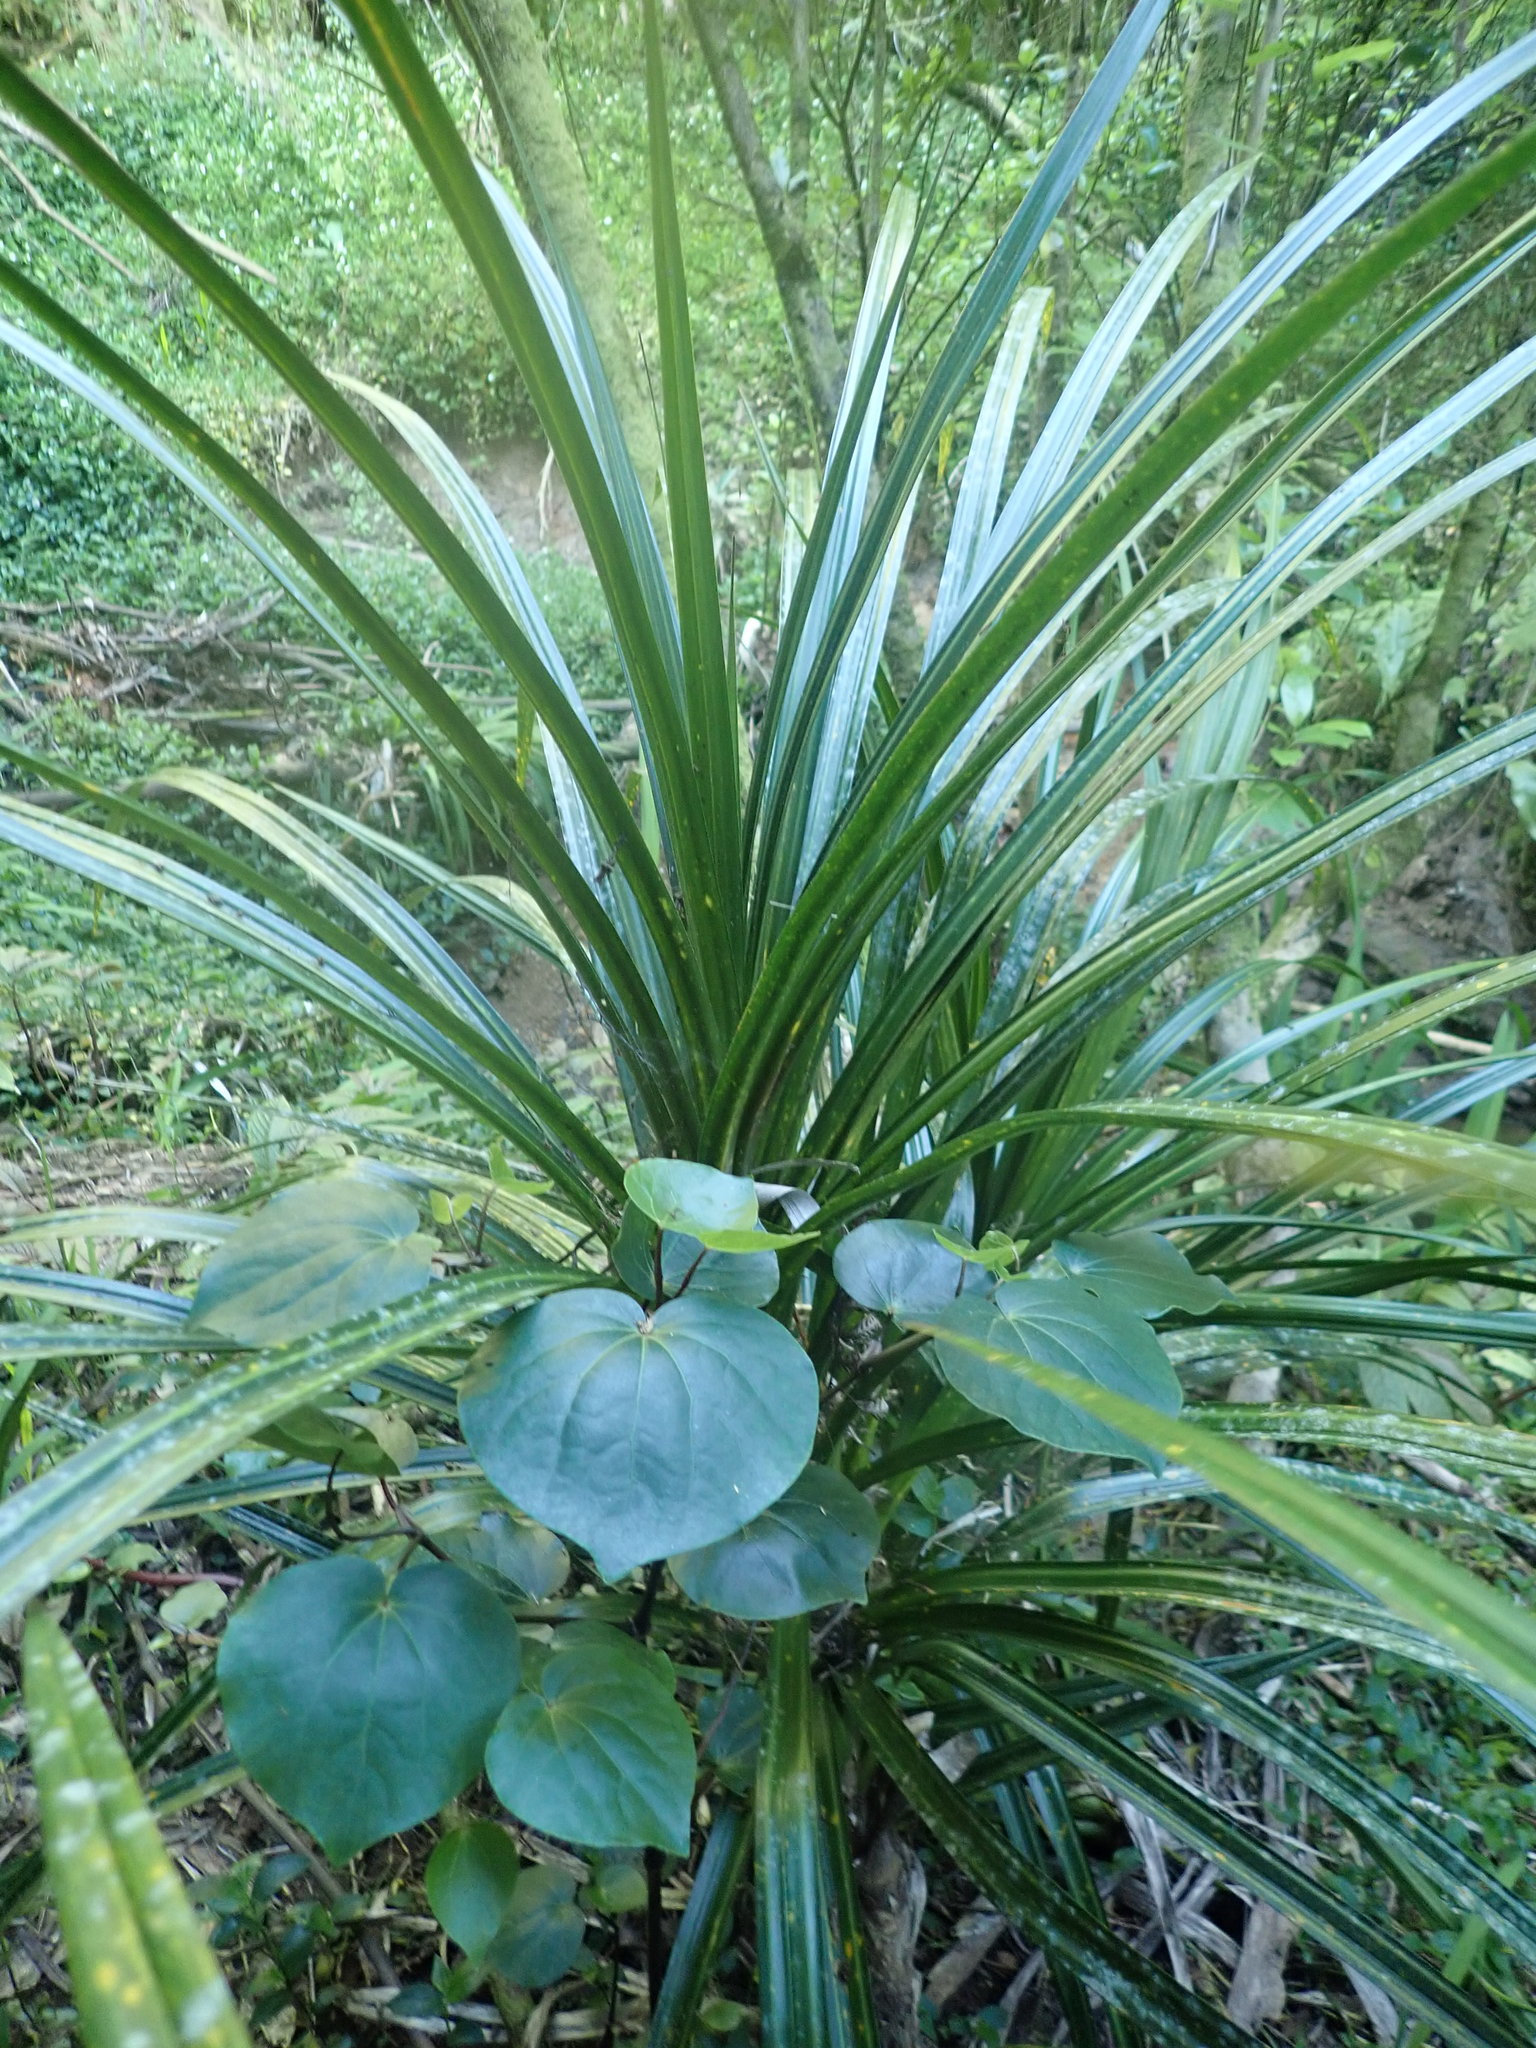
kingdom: Plantae
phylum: Tracheophyta
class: Magnoliopsida
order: Piperales
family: Piperaceae
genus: Macropiper
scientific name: Macropiper excelsum
